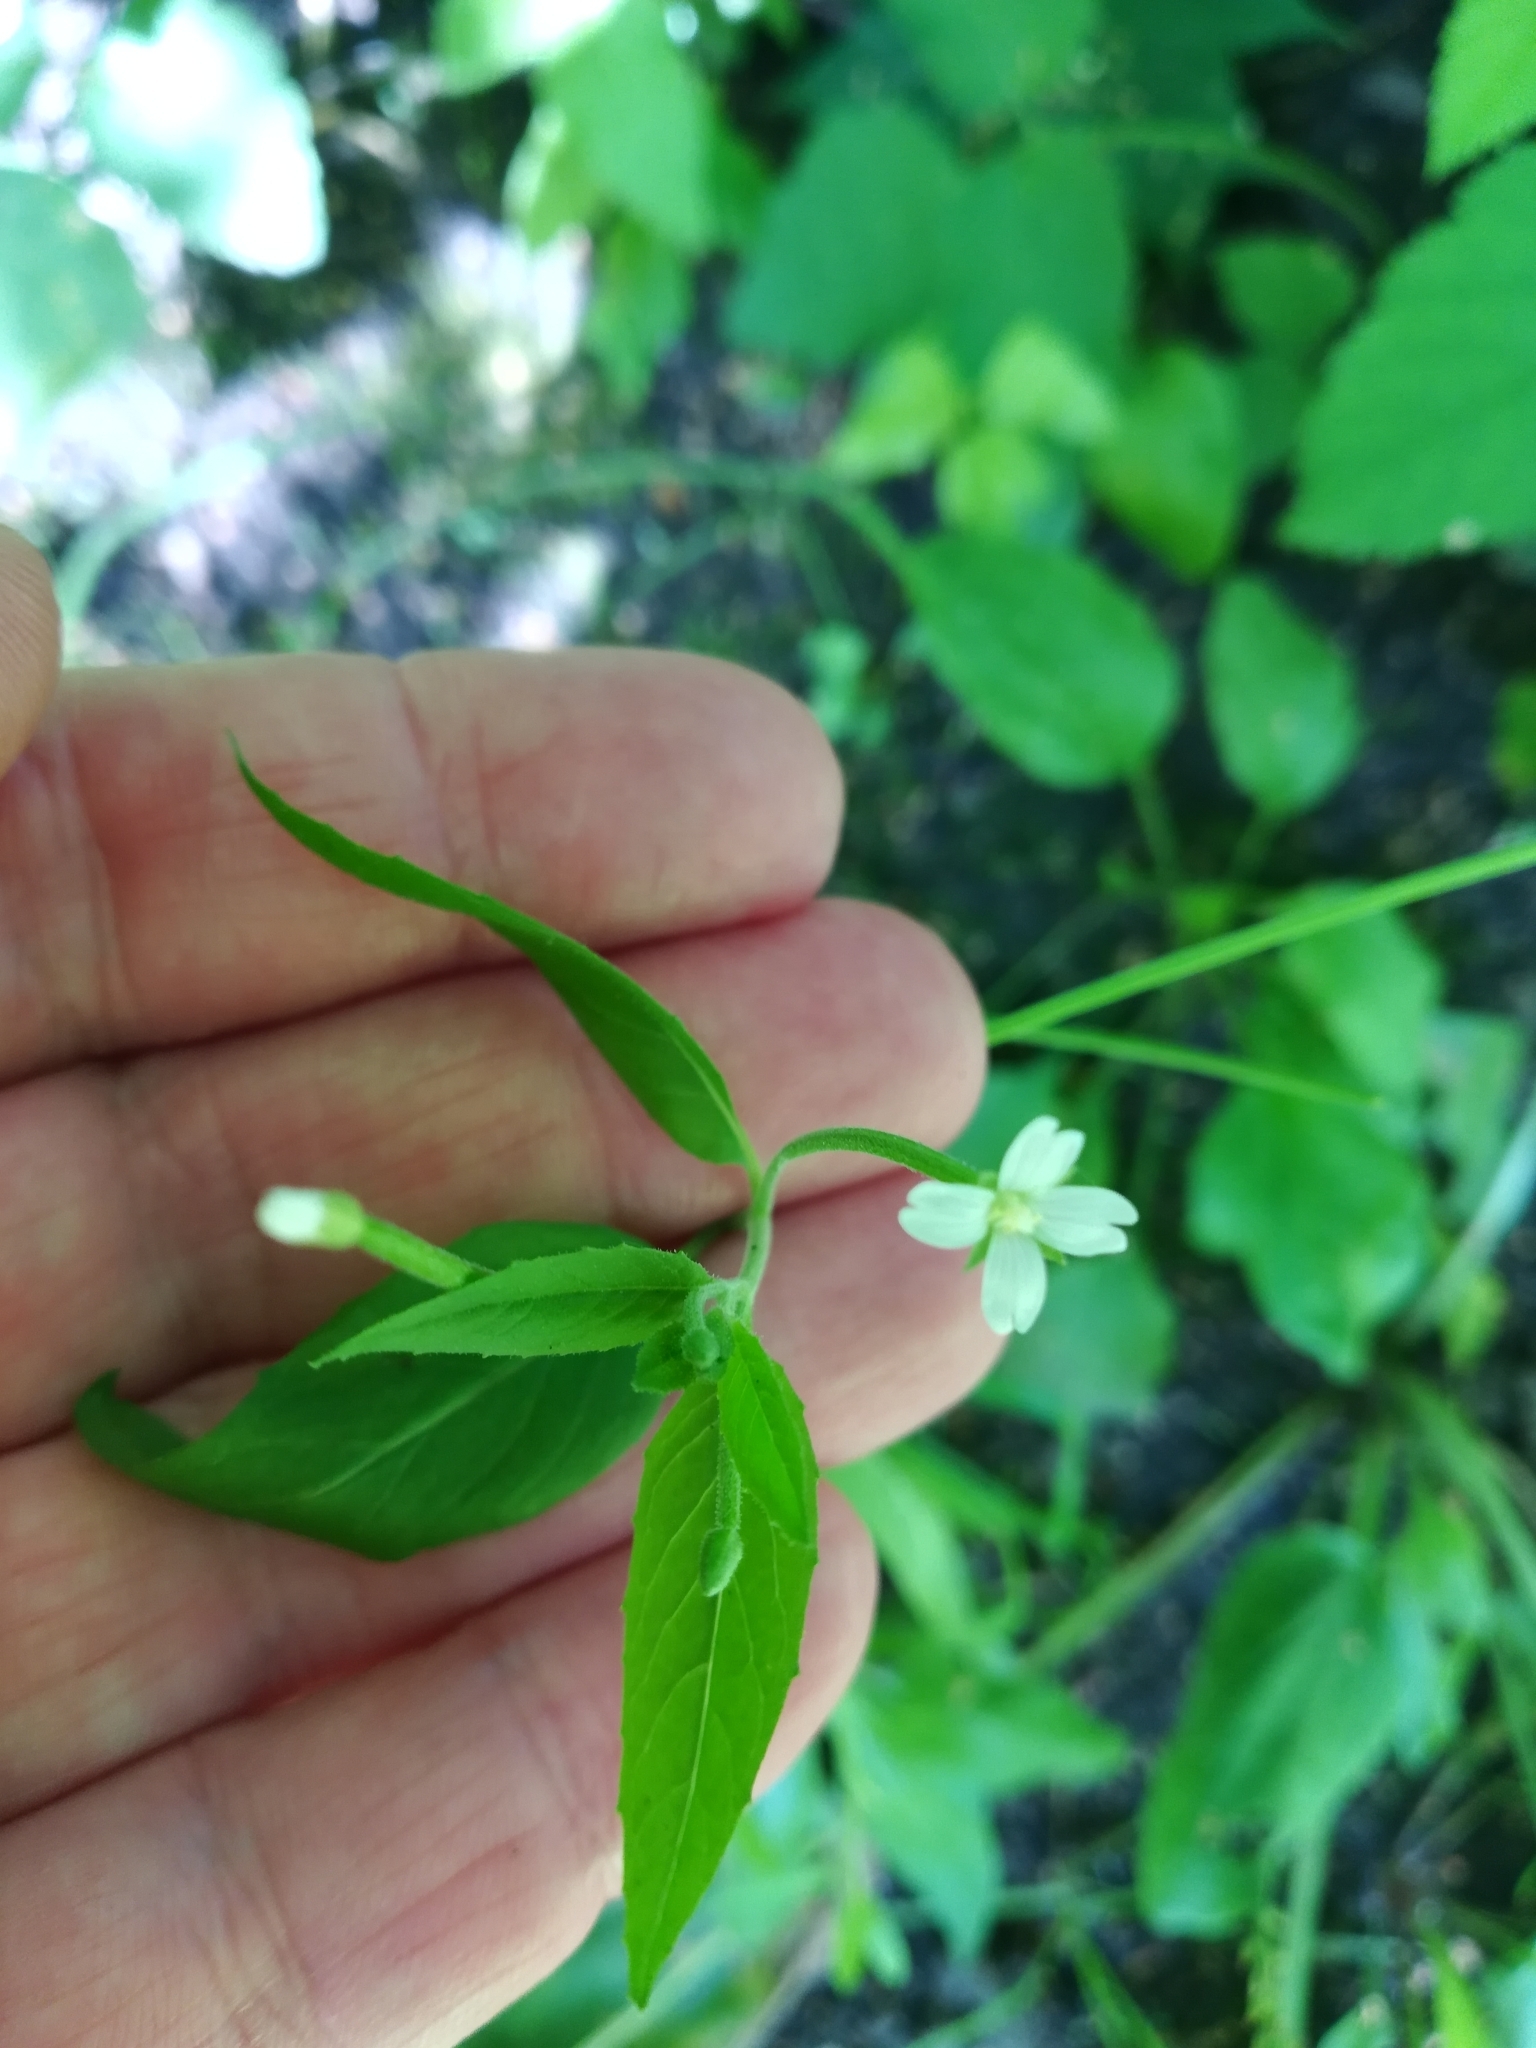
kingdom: Plantae
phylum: Tracheophyta
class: Magnoliopsida
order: Myrtales
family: Onagraceae
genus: Epilobium
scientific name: Epilobium pseudorubescens
